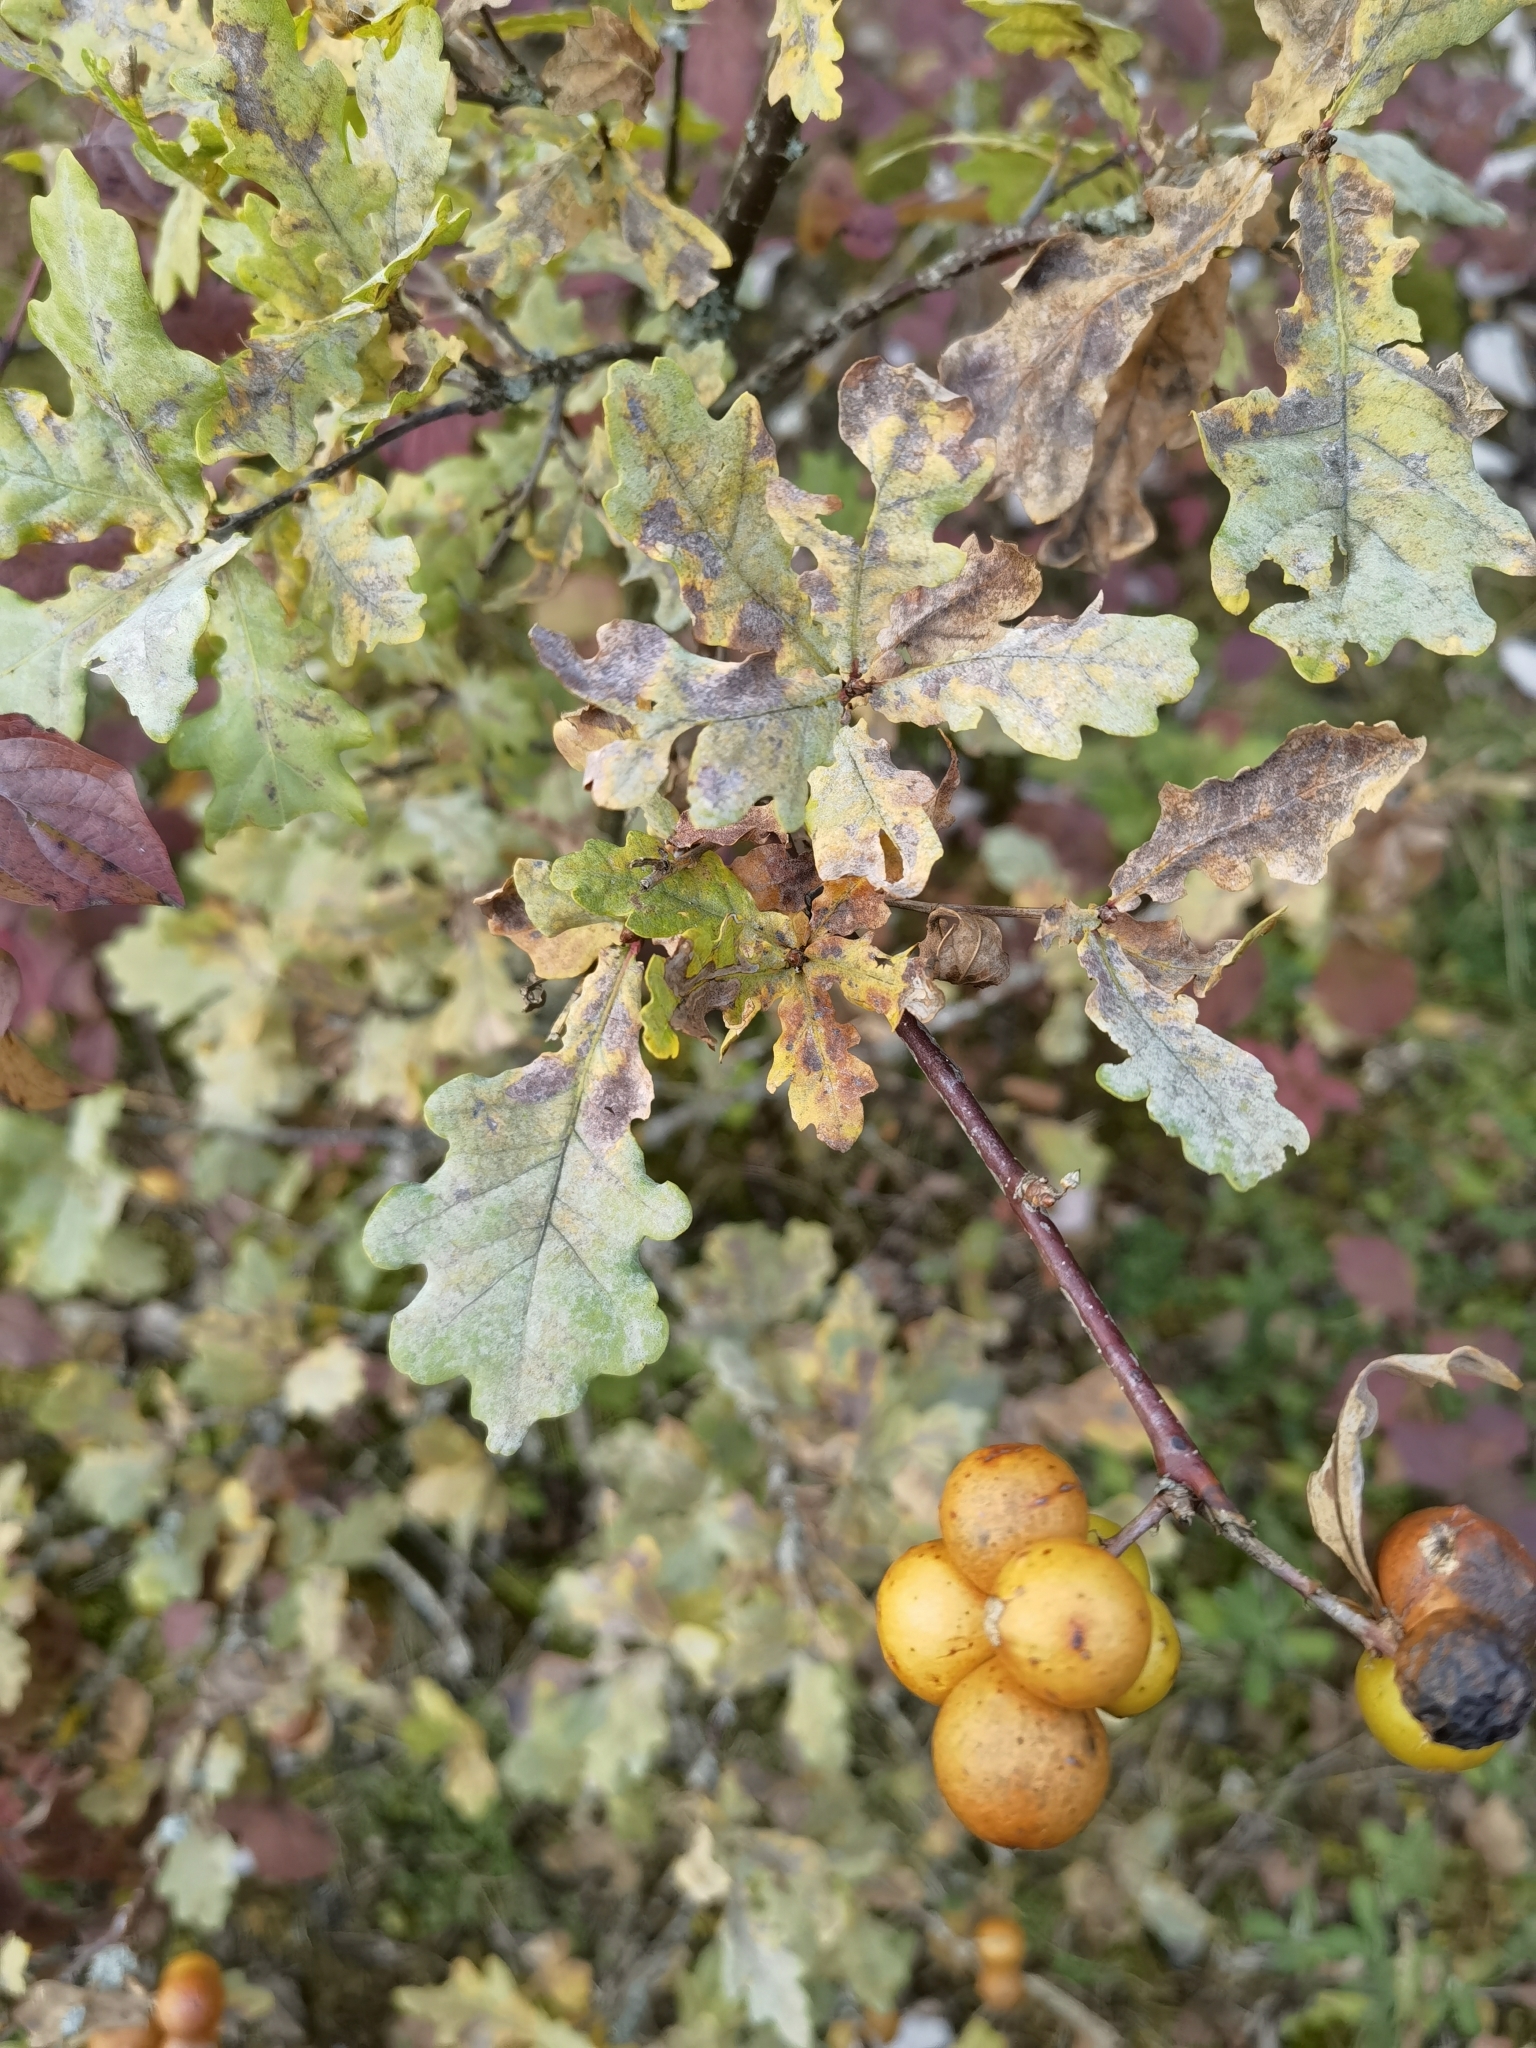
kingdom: Plantae
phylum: Tracheophyta
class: Magnoliopsida
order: Fagales
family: Fagaceae
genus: Quercus
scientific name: Quercus robur
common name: Pedunculate oak
